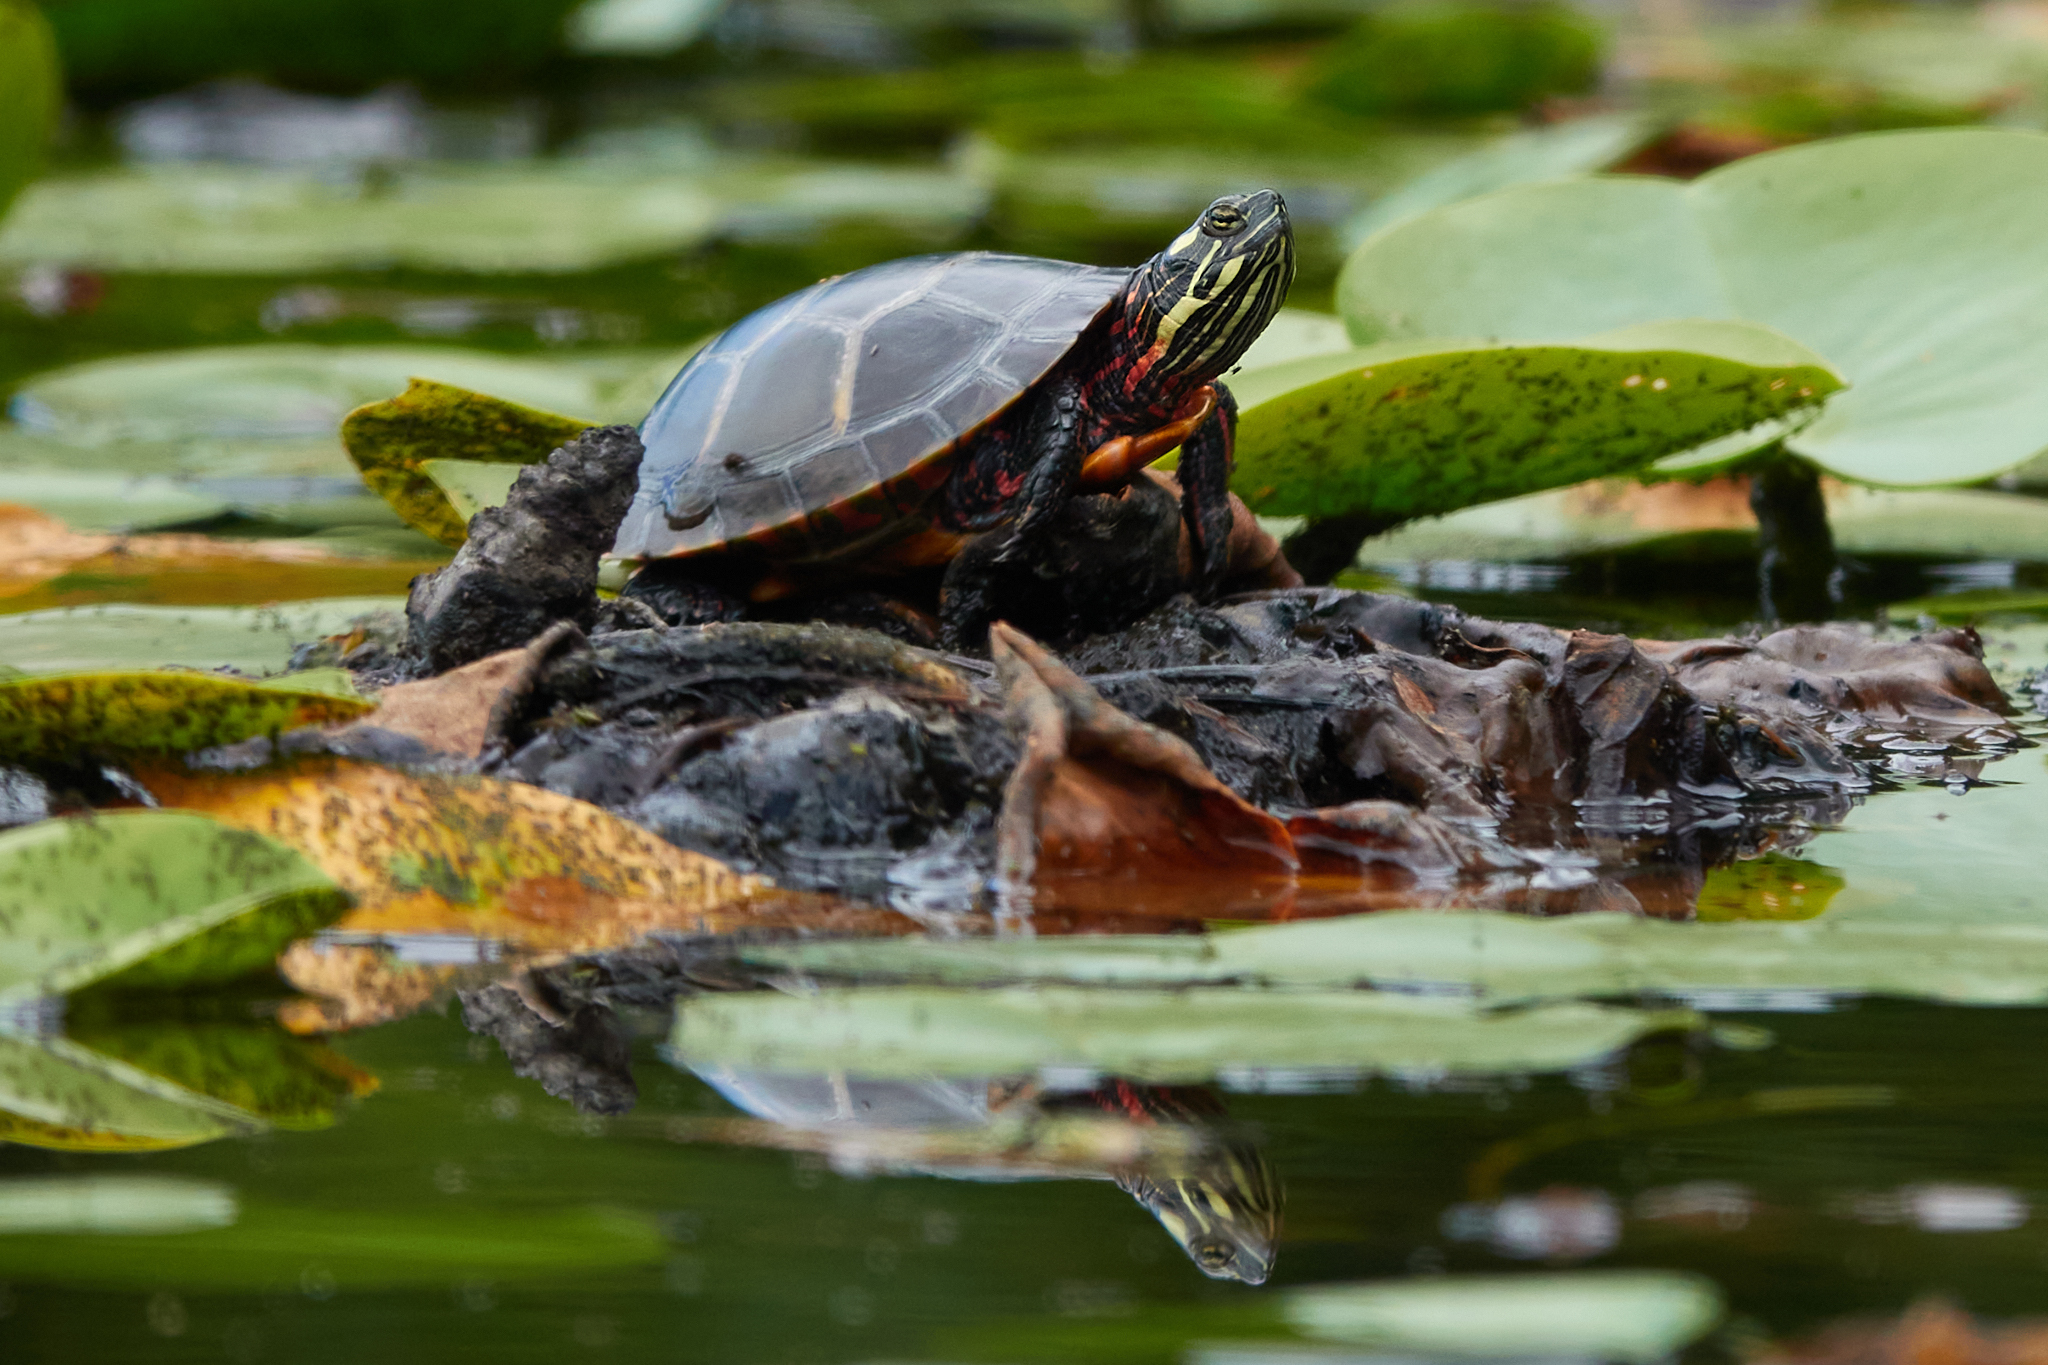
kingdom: Animalia
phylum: Chordata
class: Testudines
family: Emydidae
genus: Chrysemys
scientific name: Chrysemys picta
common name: Painted turtle
